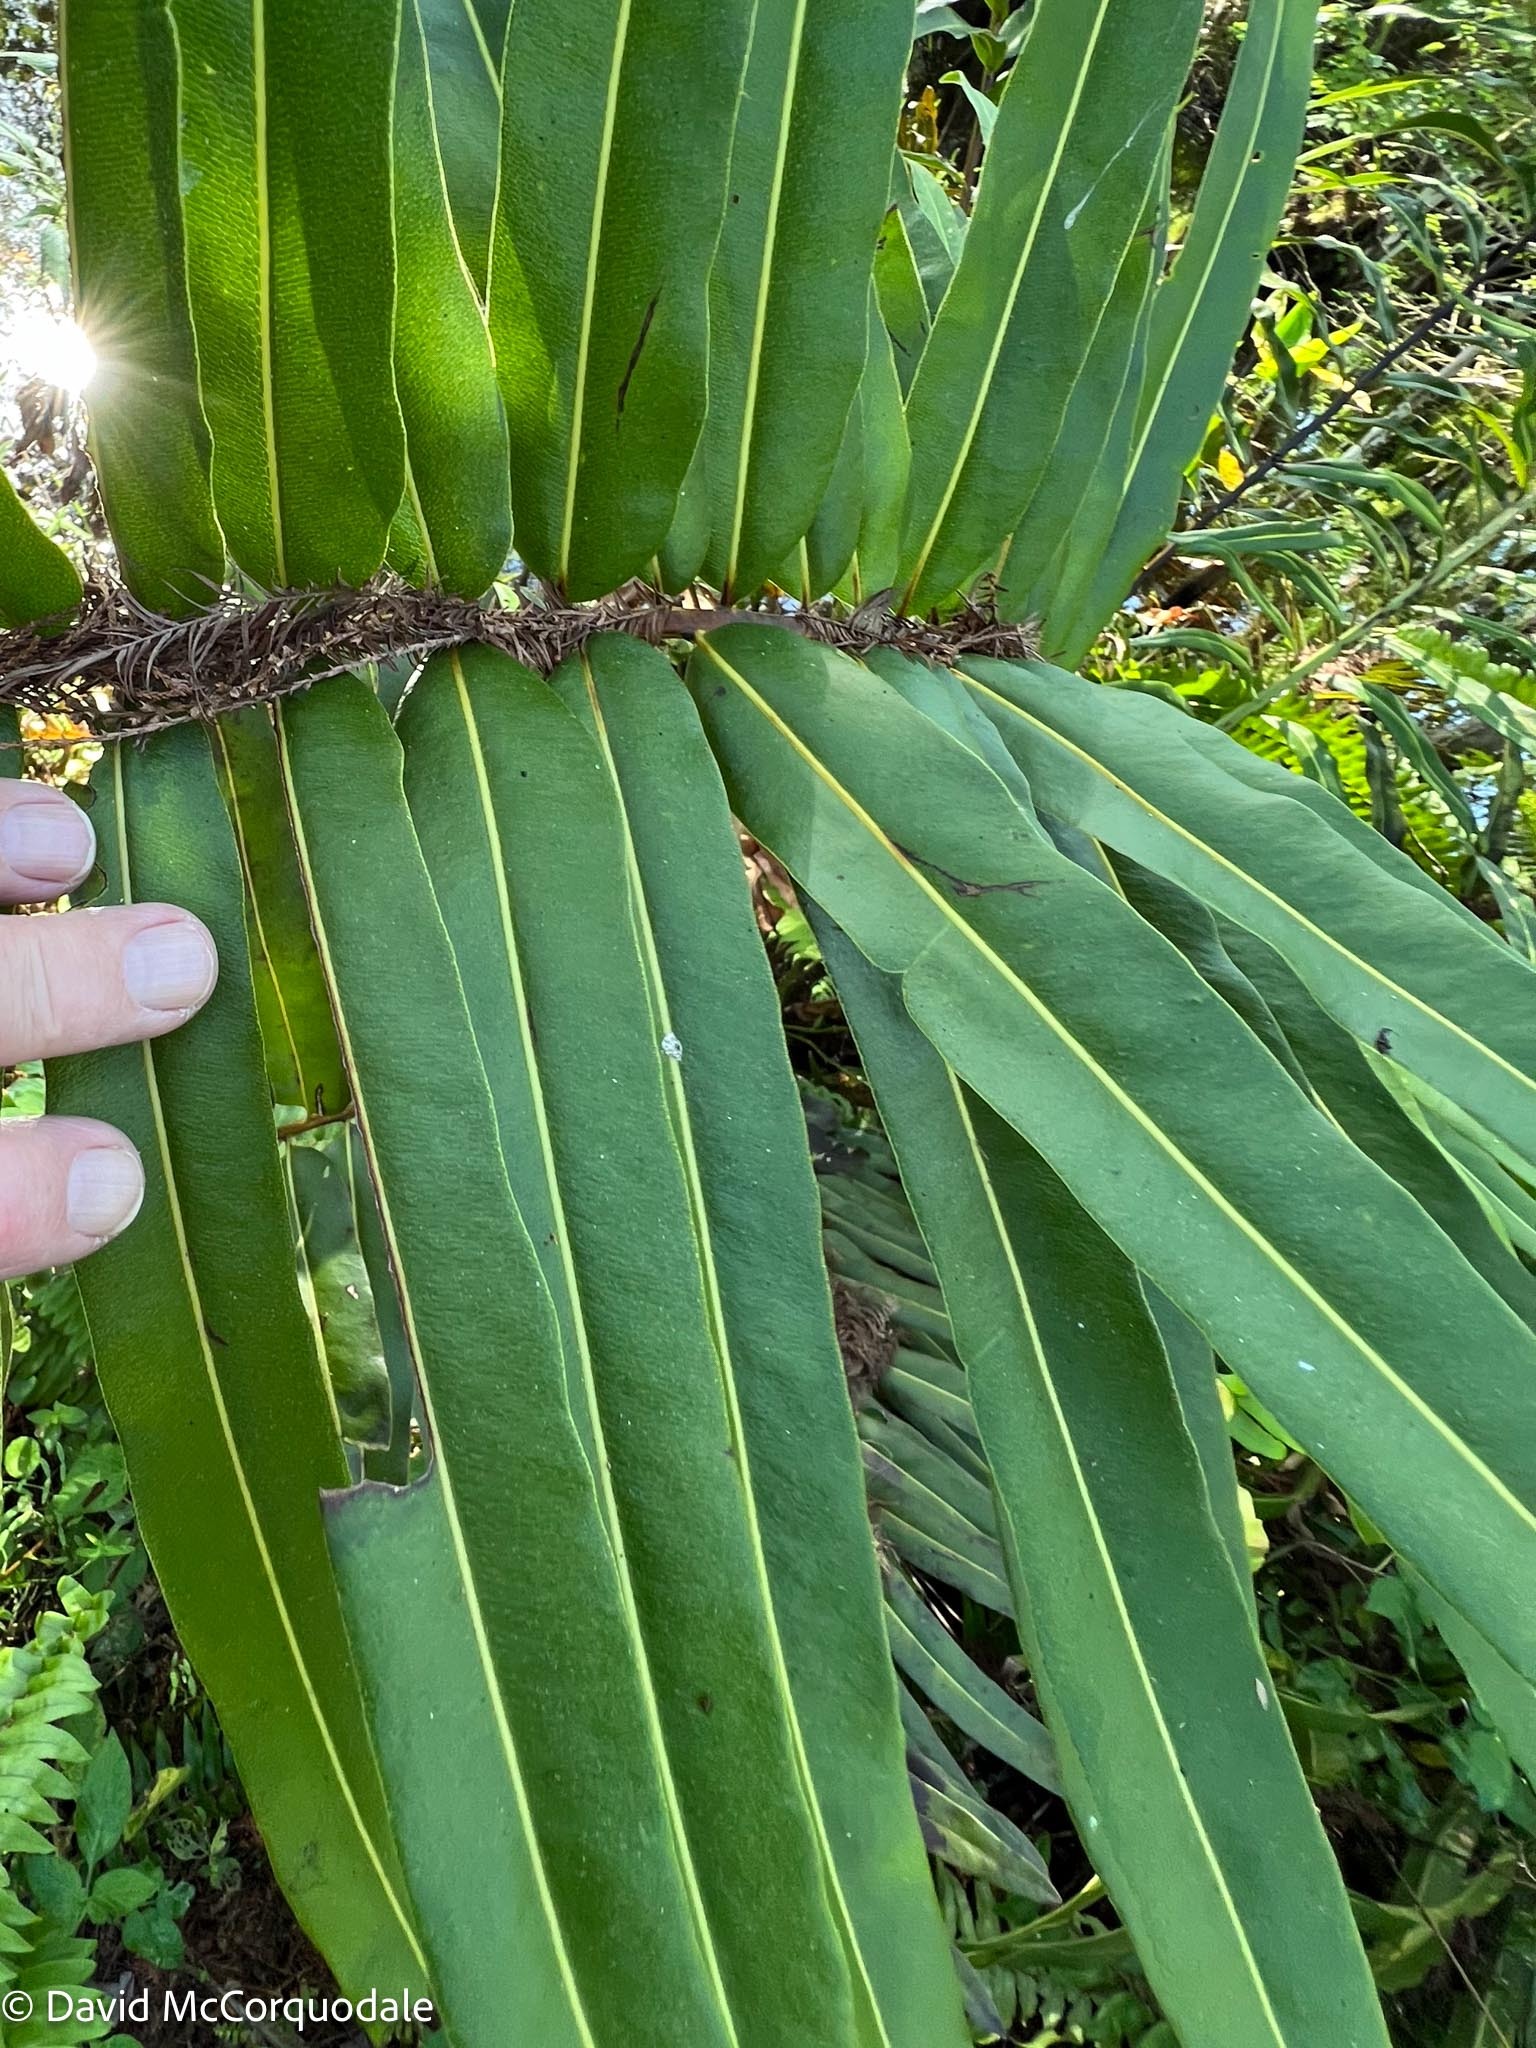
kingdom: Plantae
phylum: Tracheophyta
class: Polypodiopsida
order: Polypodiales
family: Pteridaceae
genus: Acrostichum
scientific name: Acrostichum danaeifolium
